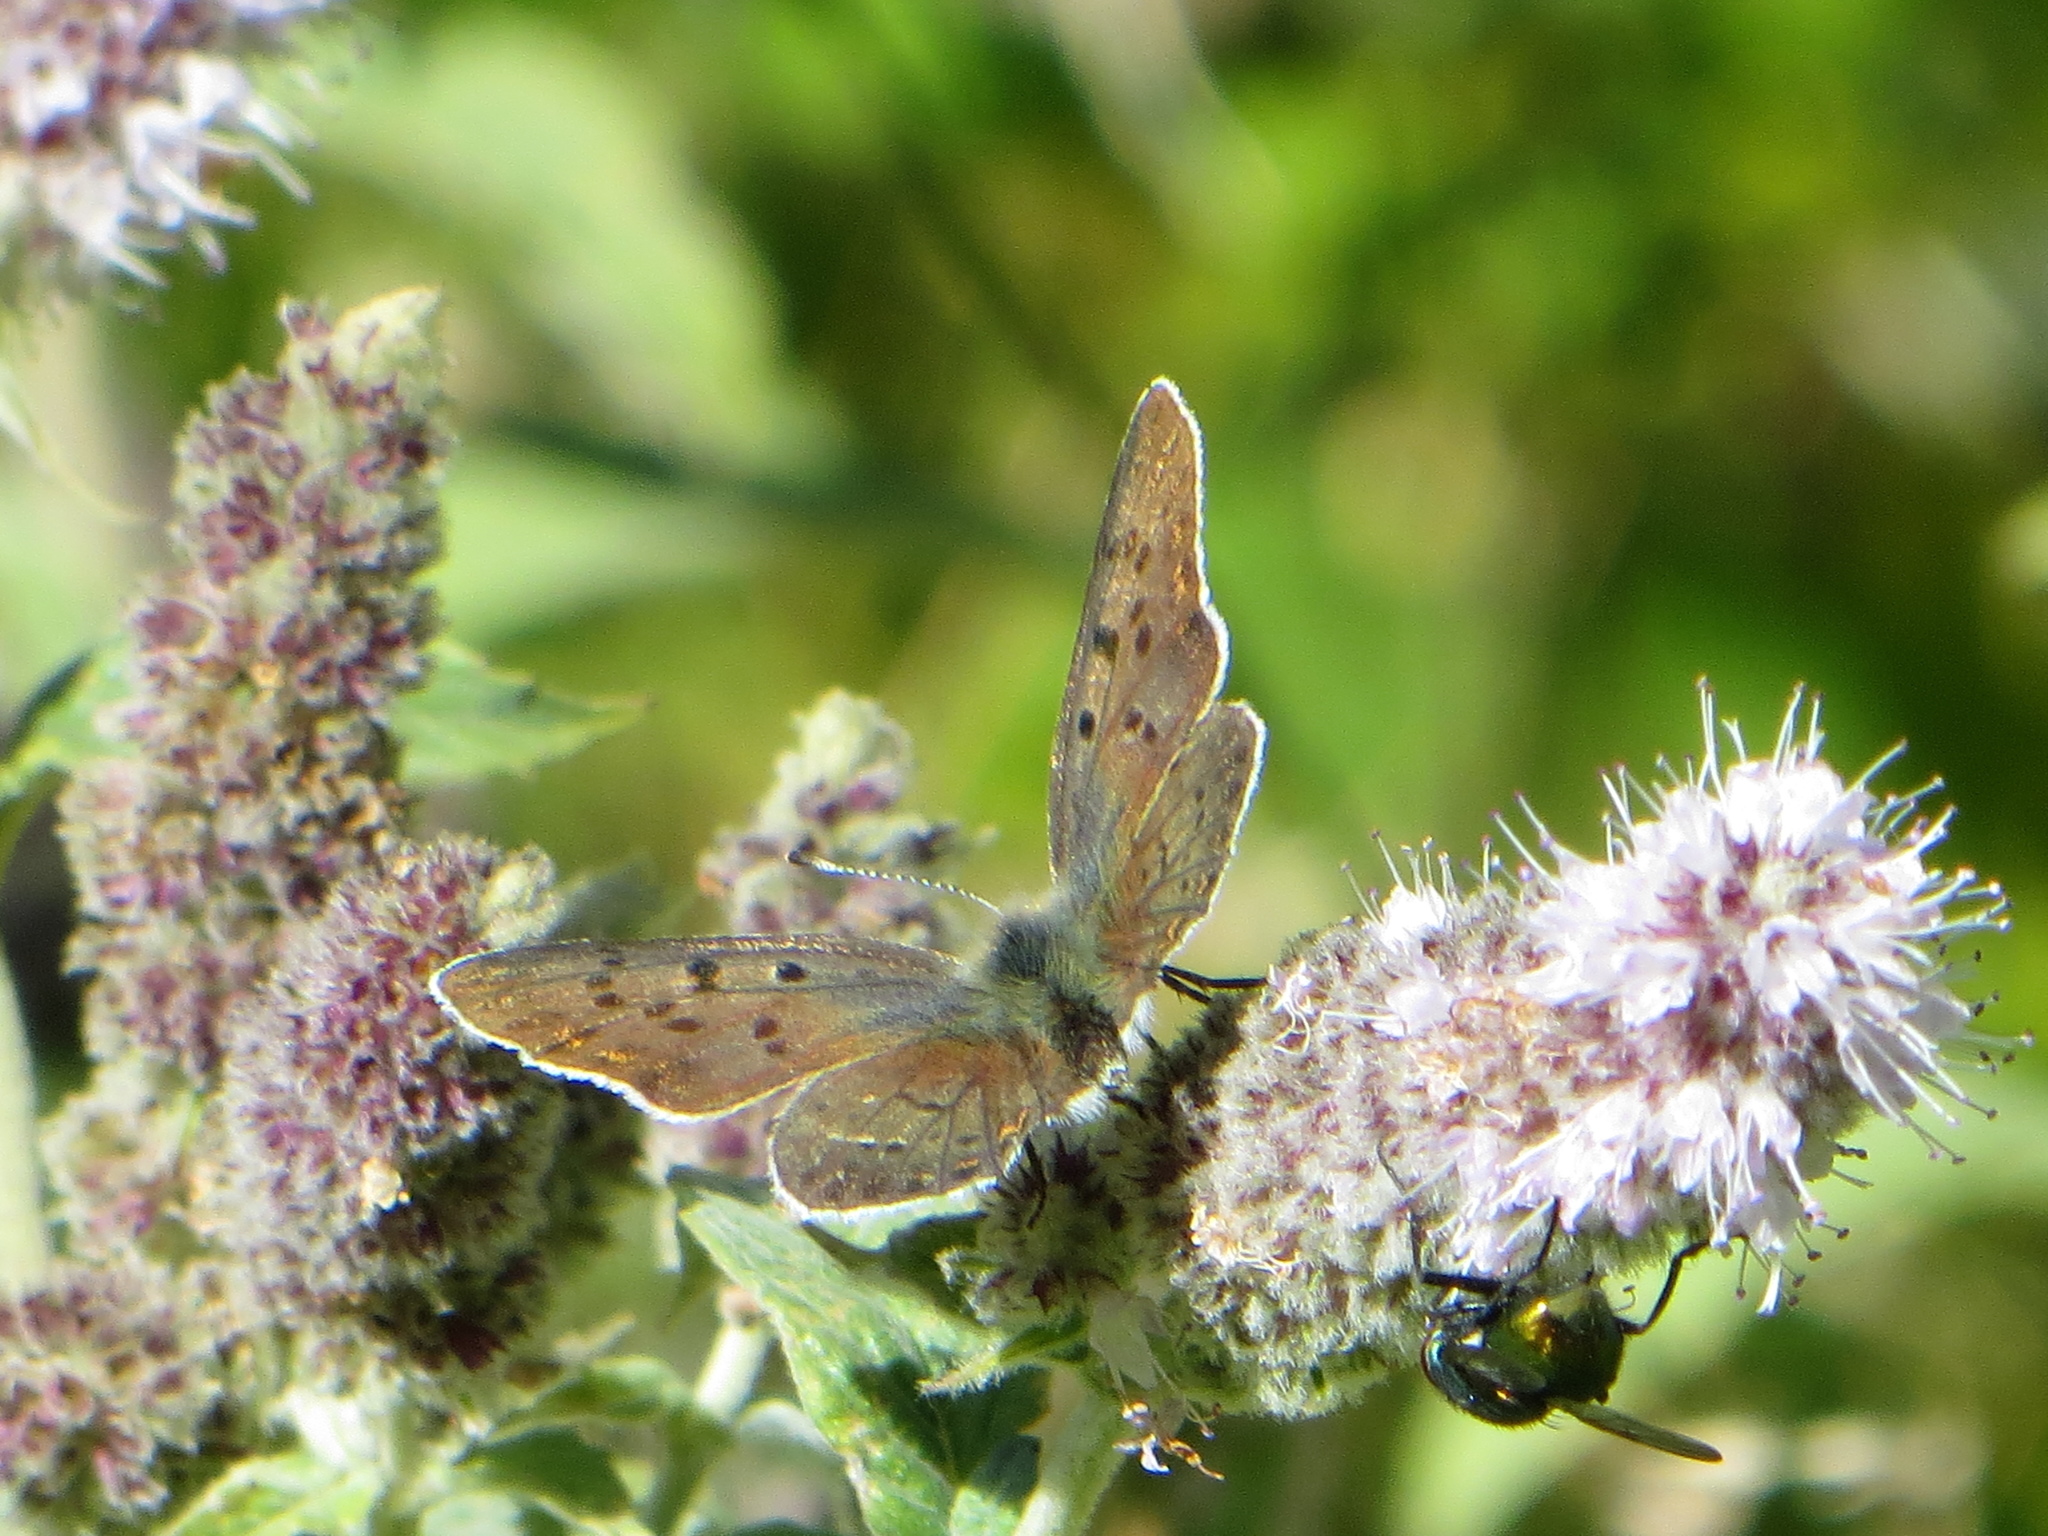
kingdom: Animalia
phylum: Arthropoda
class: Insecta
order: Lepidoptera
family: Lycaenidae
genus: Loweia
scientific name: Loweia tityrus
